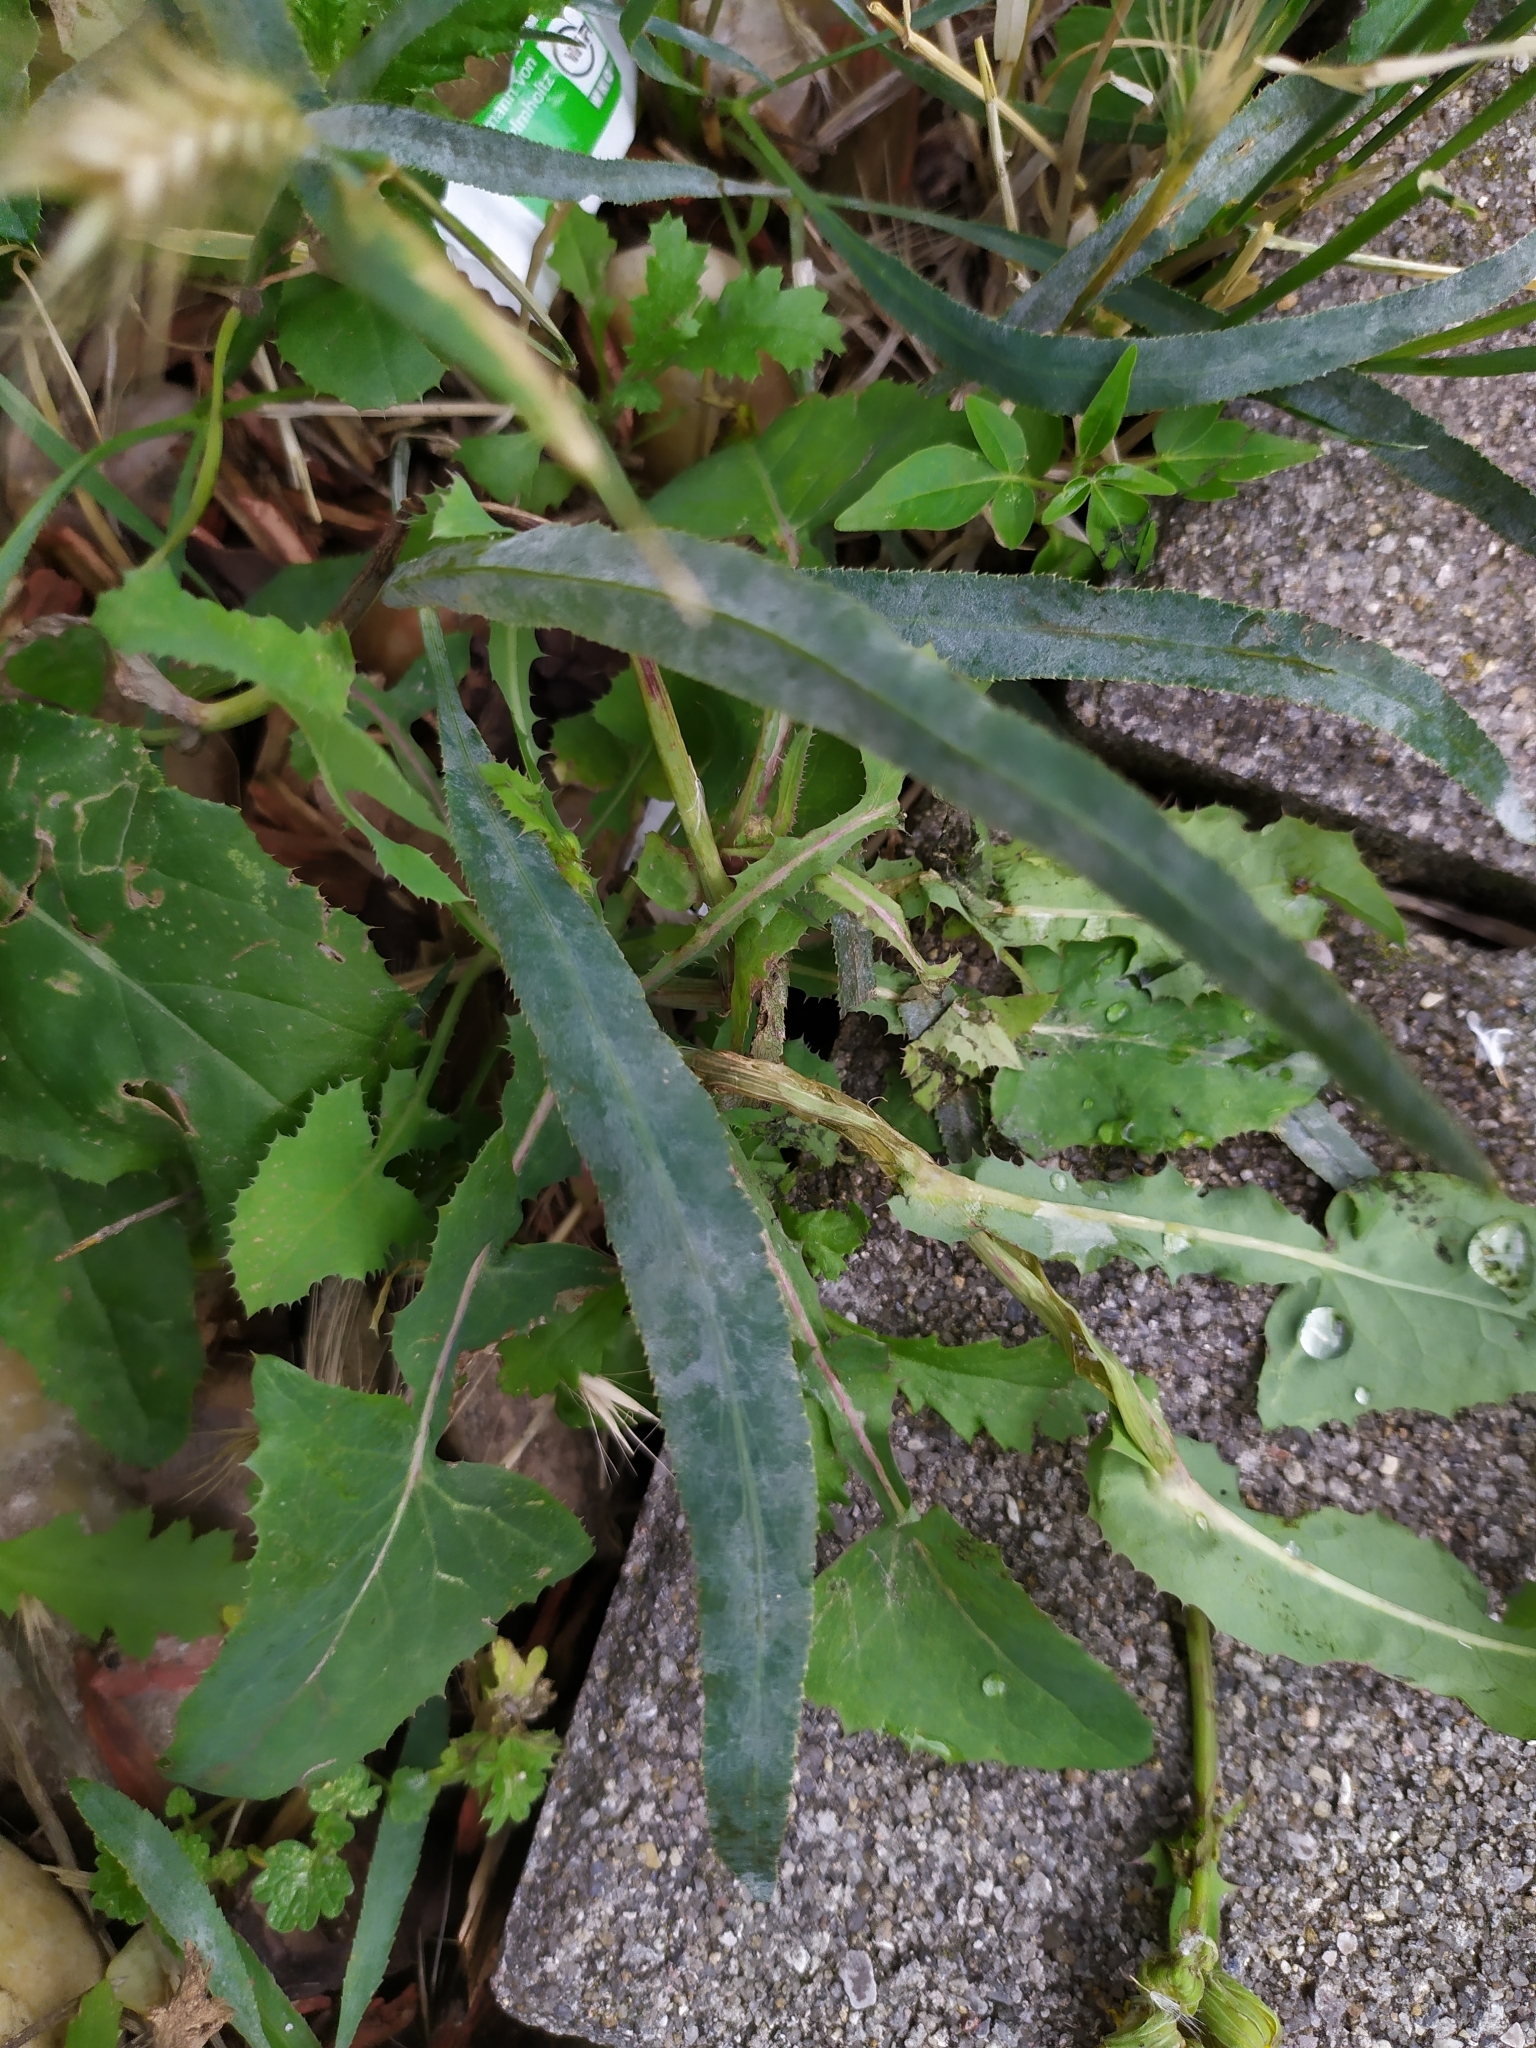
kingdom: Fungi
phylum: Ascomycota
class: Leotiomycetes
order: Helotiales
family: Erysiphaceae
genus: Erysiphe
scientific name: Erysiphe heraclei
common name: Umbellifer mildew
